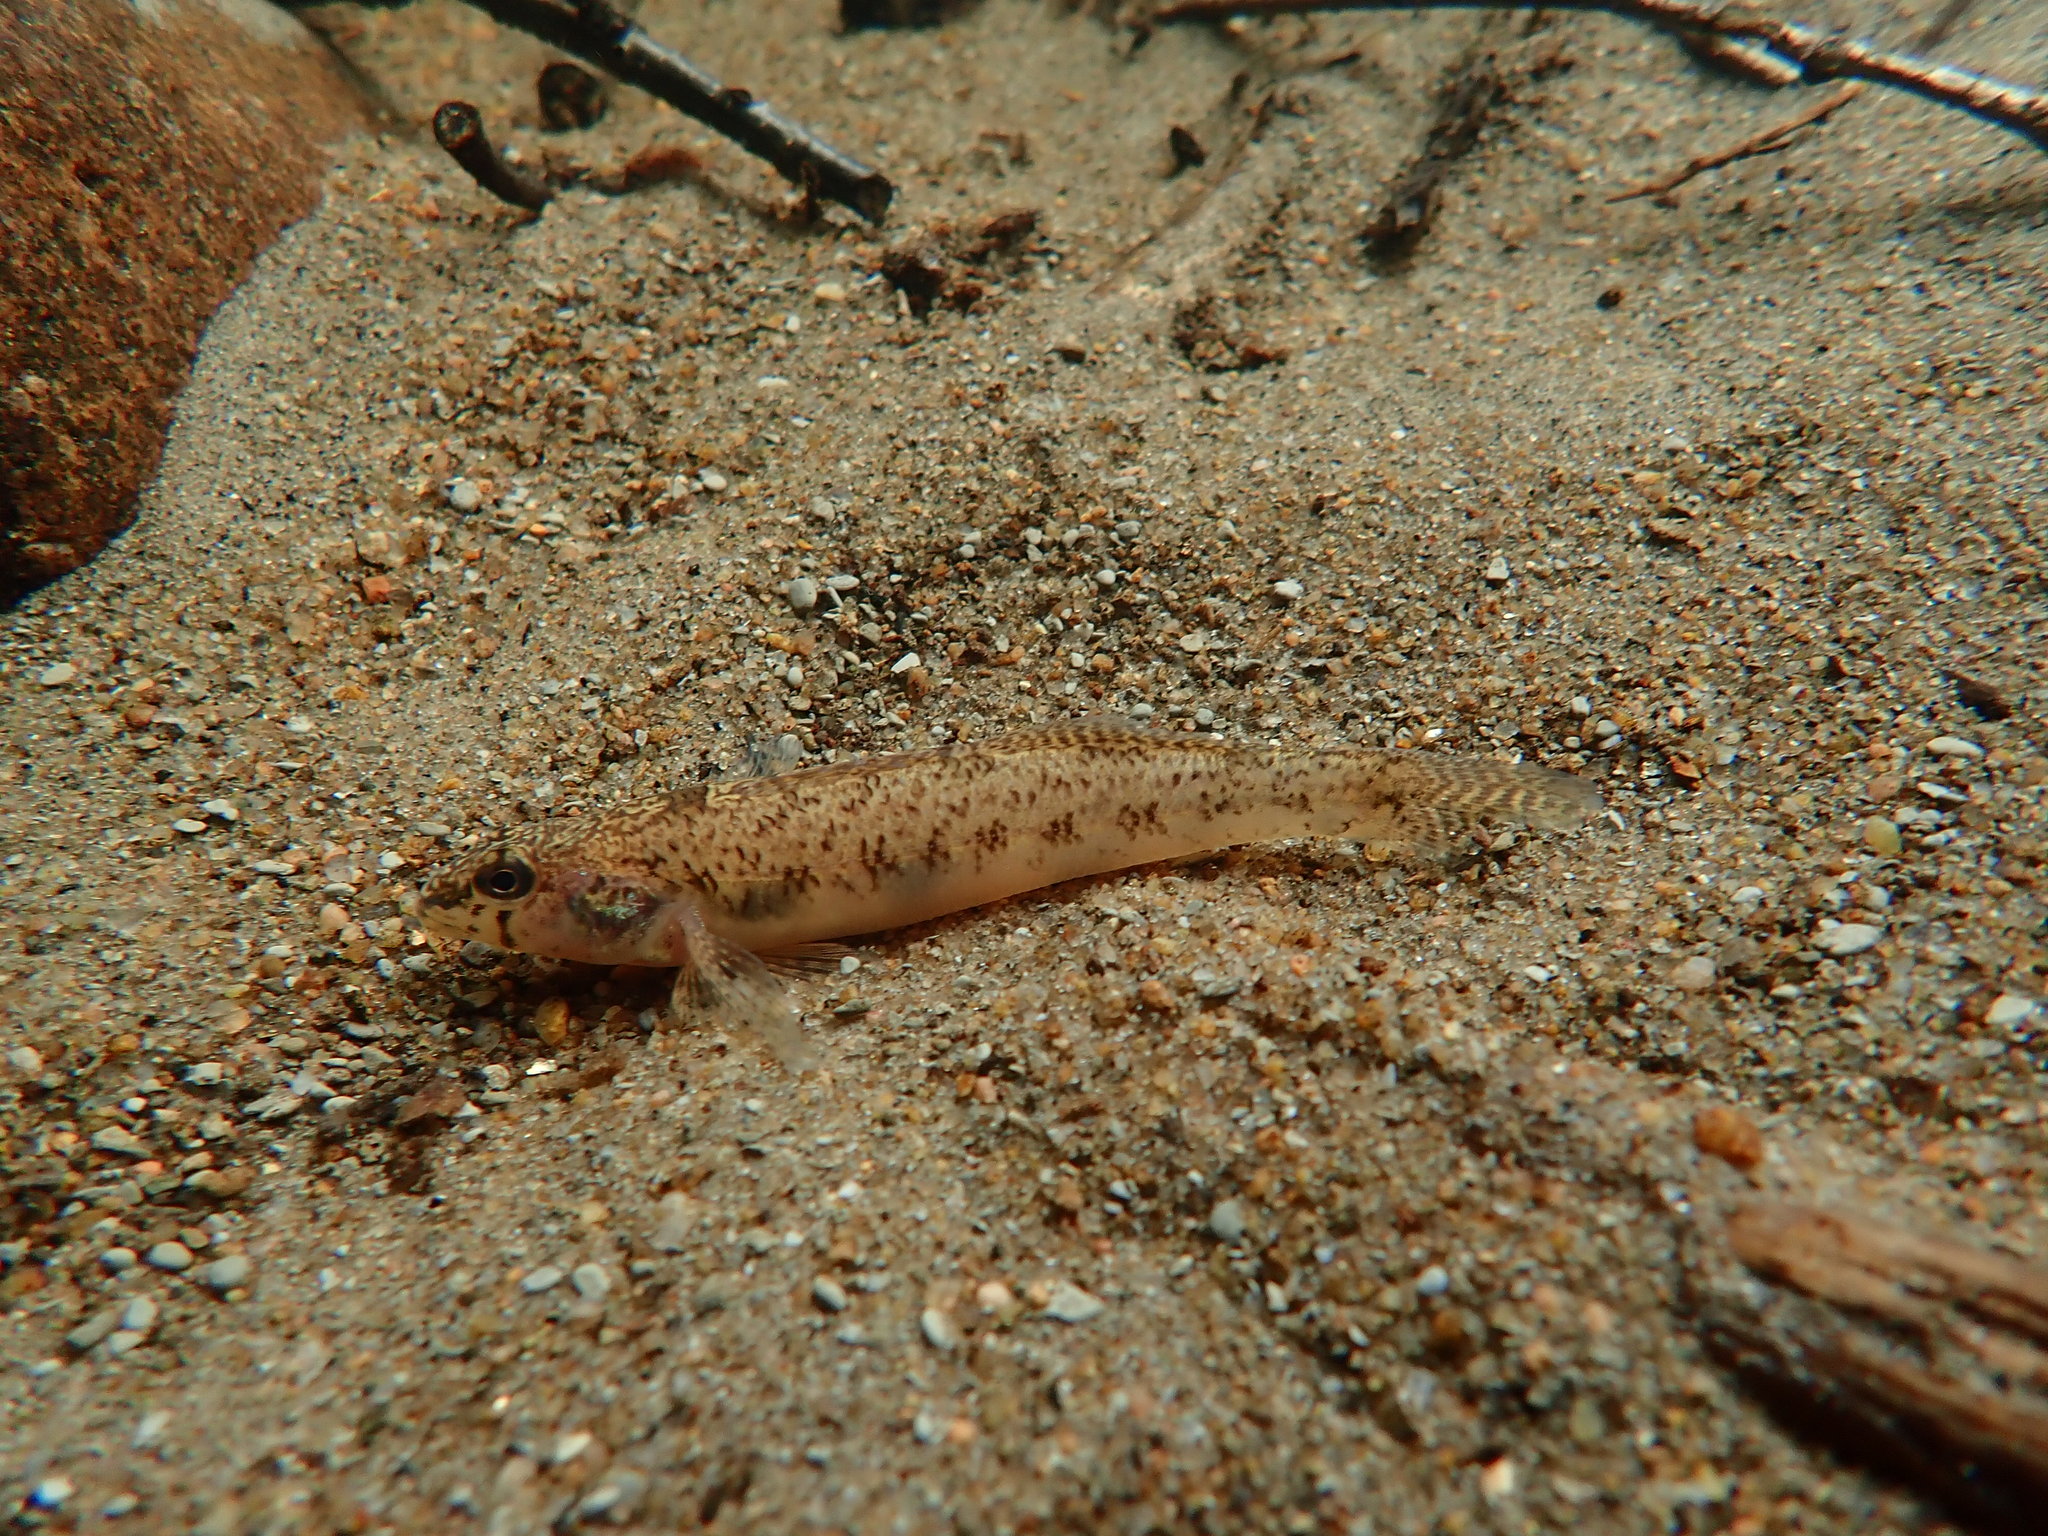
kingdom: Animalia
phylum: Chordata
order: Perciformes
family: Percidae
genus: Etheostoma
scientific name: Etheostoma olmstedi
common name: Tessellated darter
